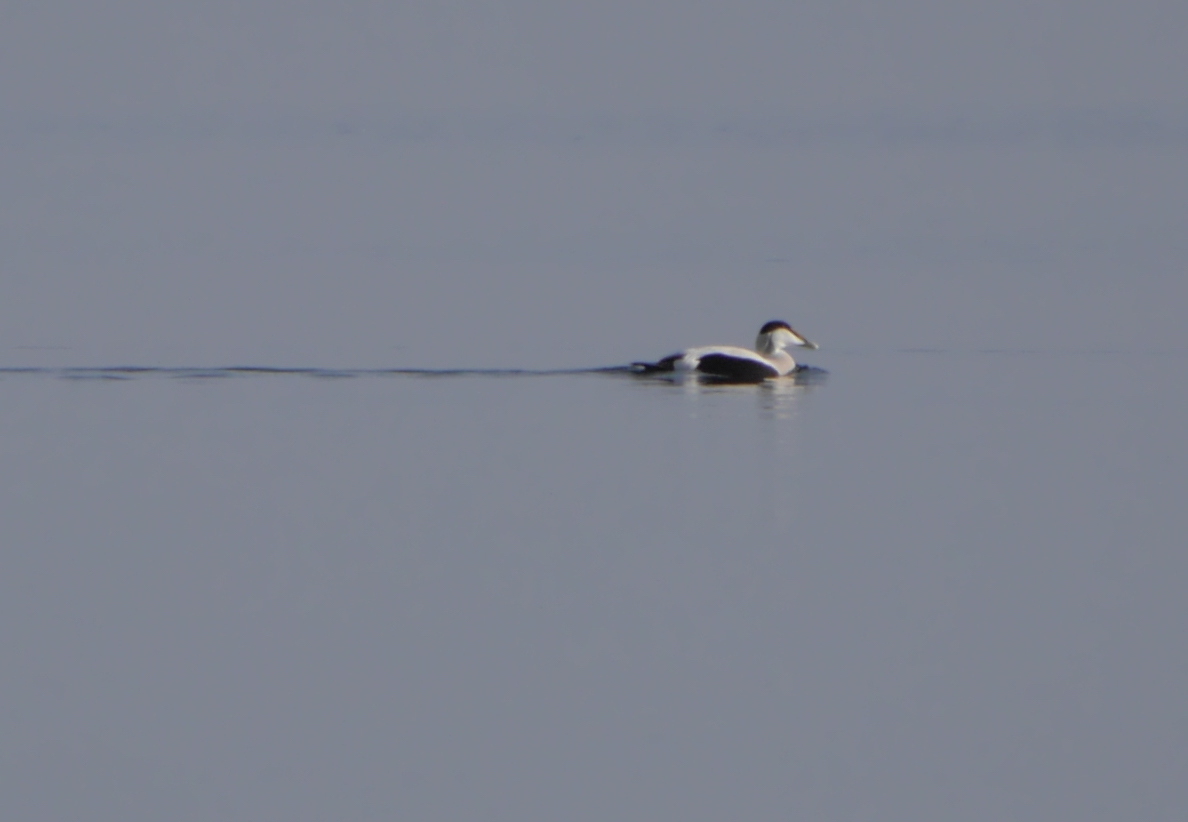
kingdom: Animalia
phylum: Chordata
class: Aves
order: Anseriformes
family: Anatidae
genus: Somateria
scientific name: Somateria mollissima
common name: Common eider
